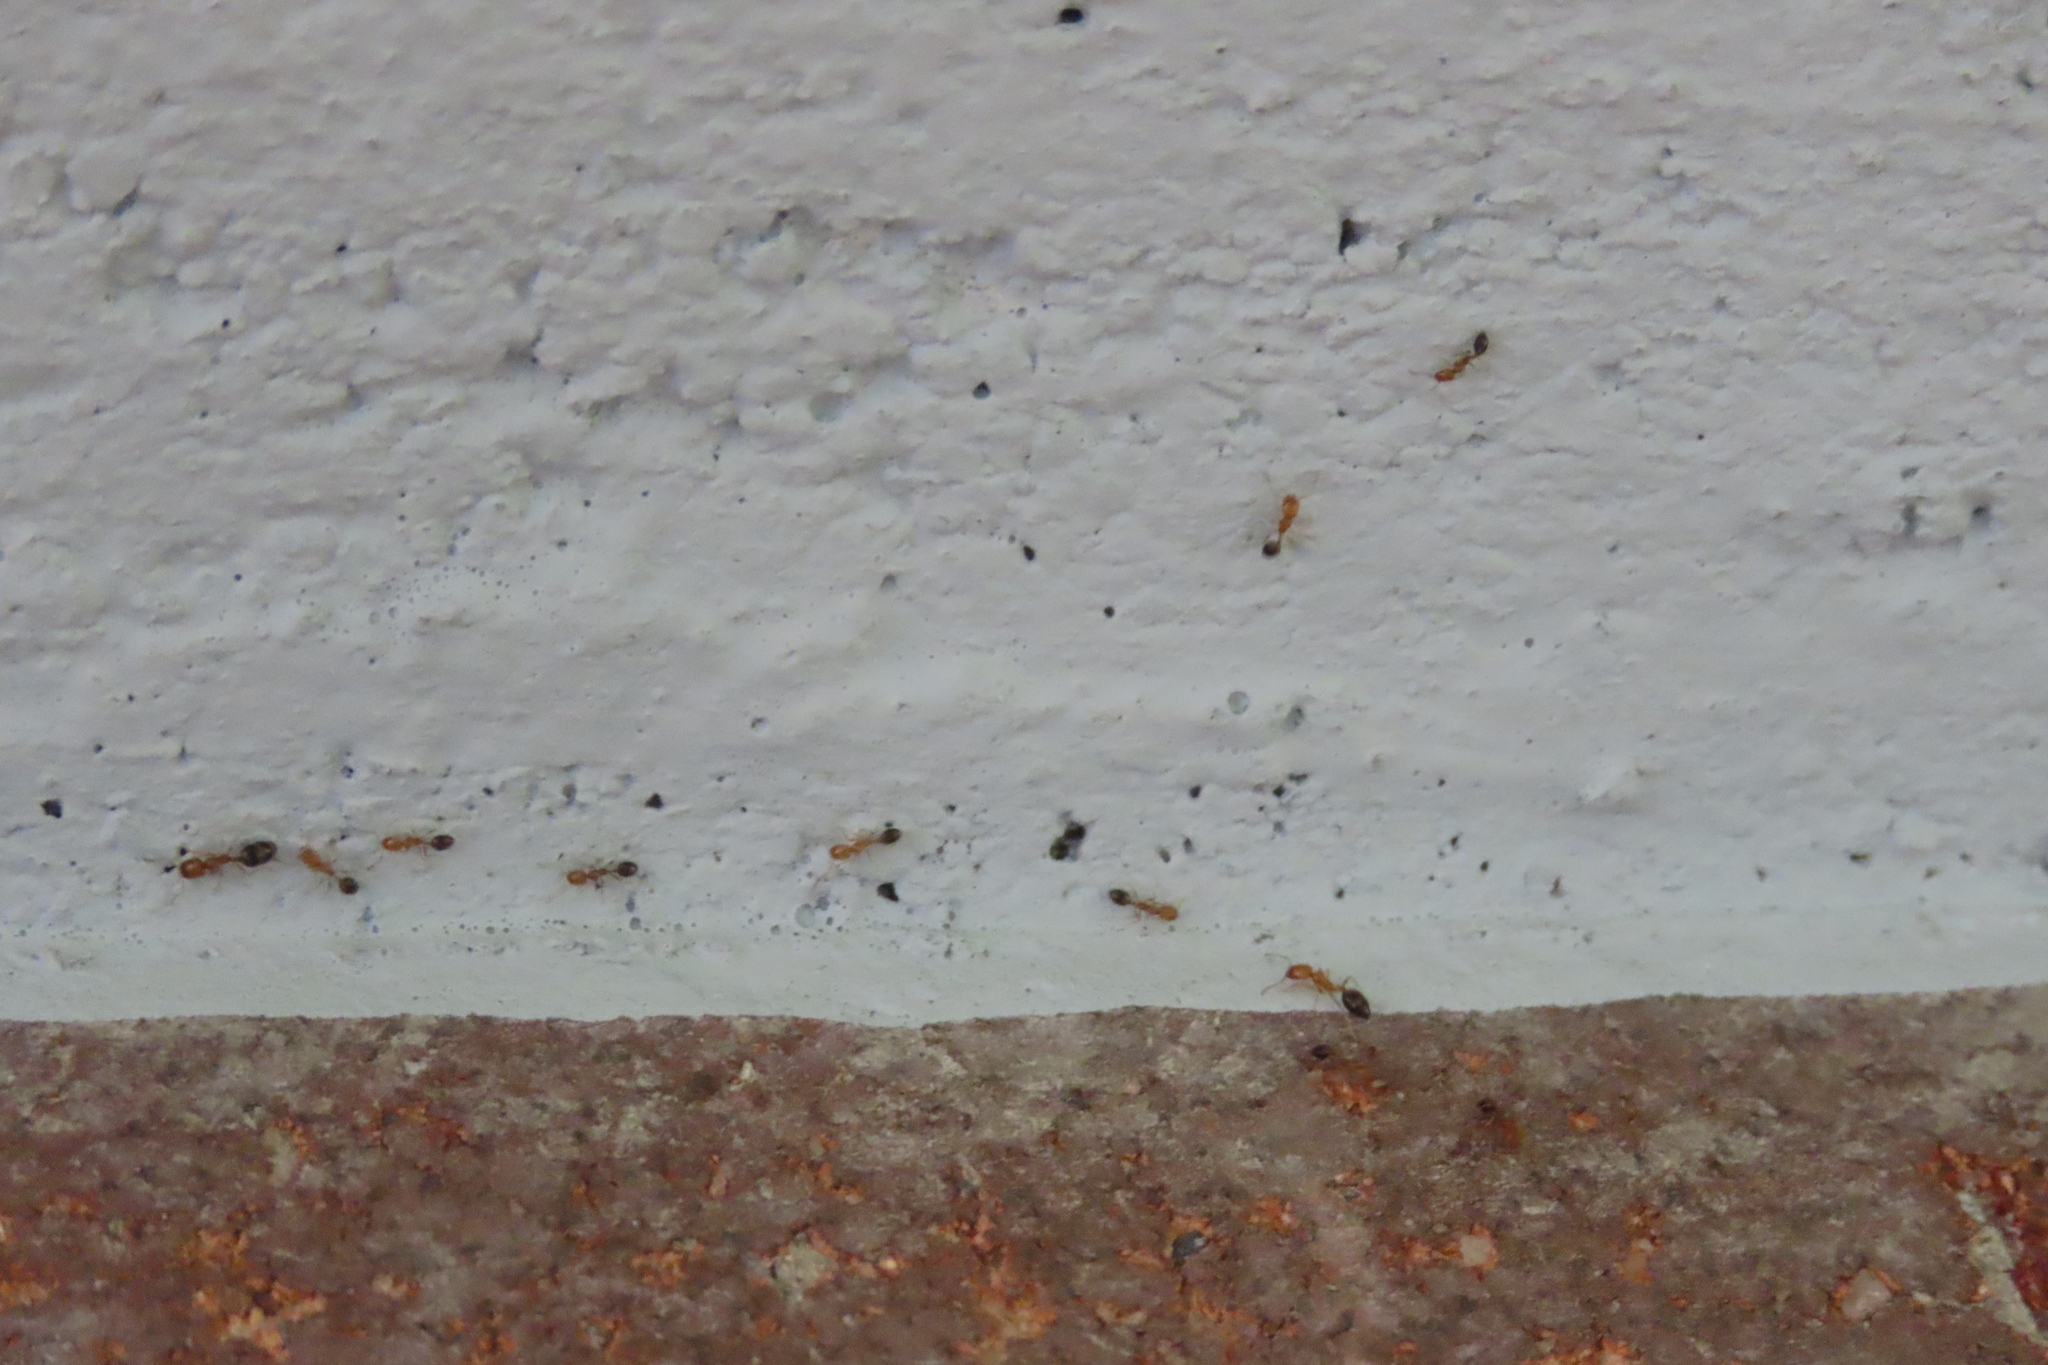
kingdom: Animalia
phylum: Arthropoda
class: Insecta
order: Hymenoptera
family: Formicidae
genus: Monomorium
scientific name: Monomorium destructor
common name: Destructive trailing ant
